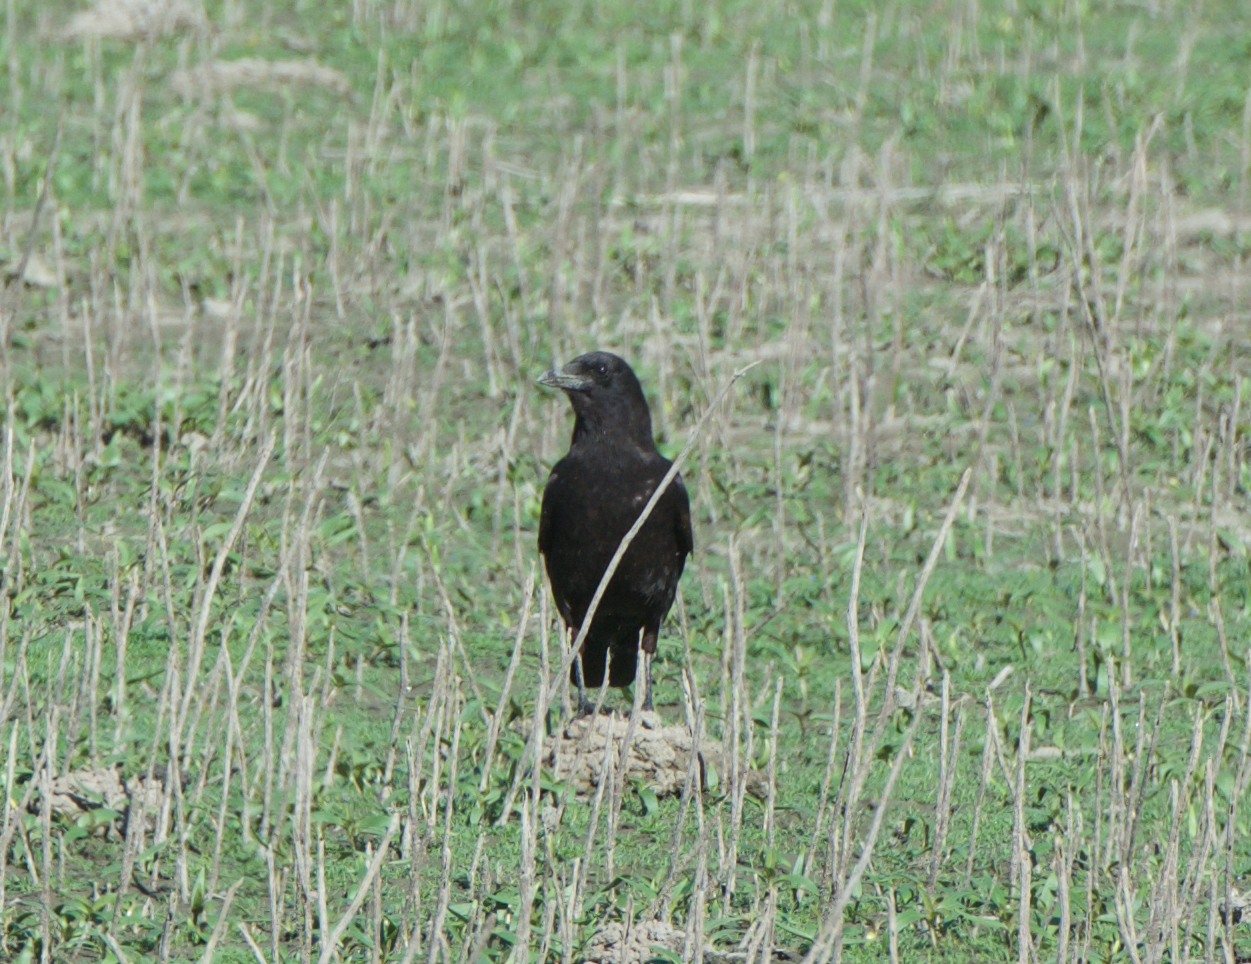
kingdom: Animalia
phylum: Chordata
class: Aves
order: Passeriformes
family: Corvidae
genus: Corvus
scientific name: Corvus brachyrhynchos
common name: American crow
